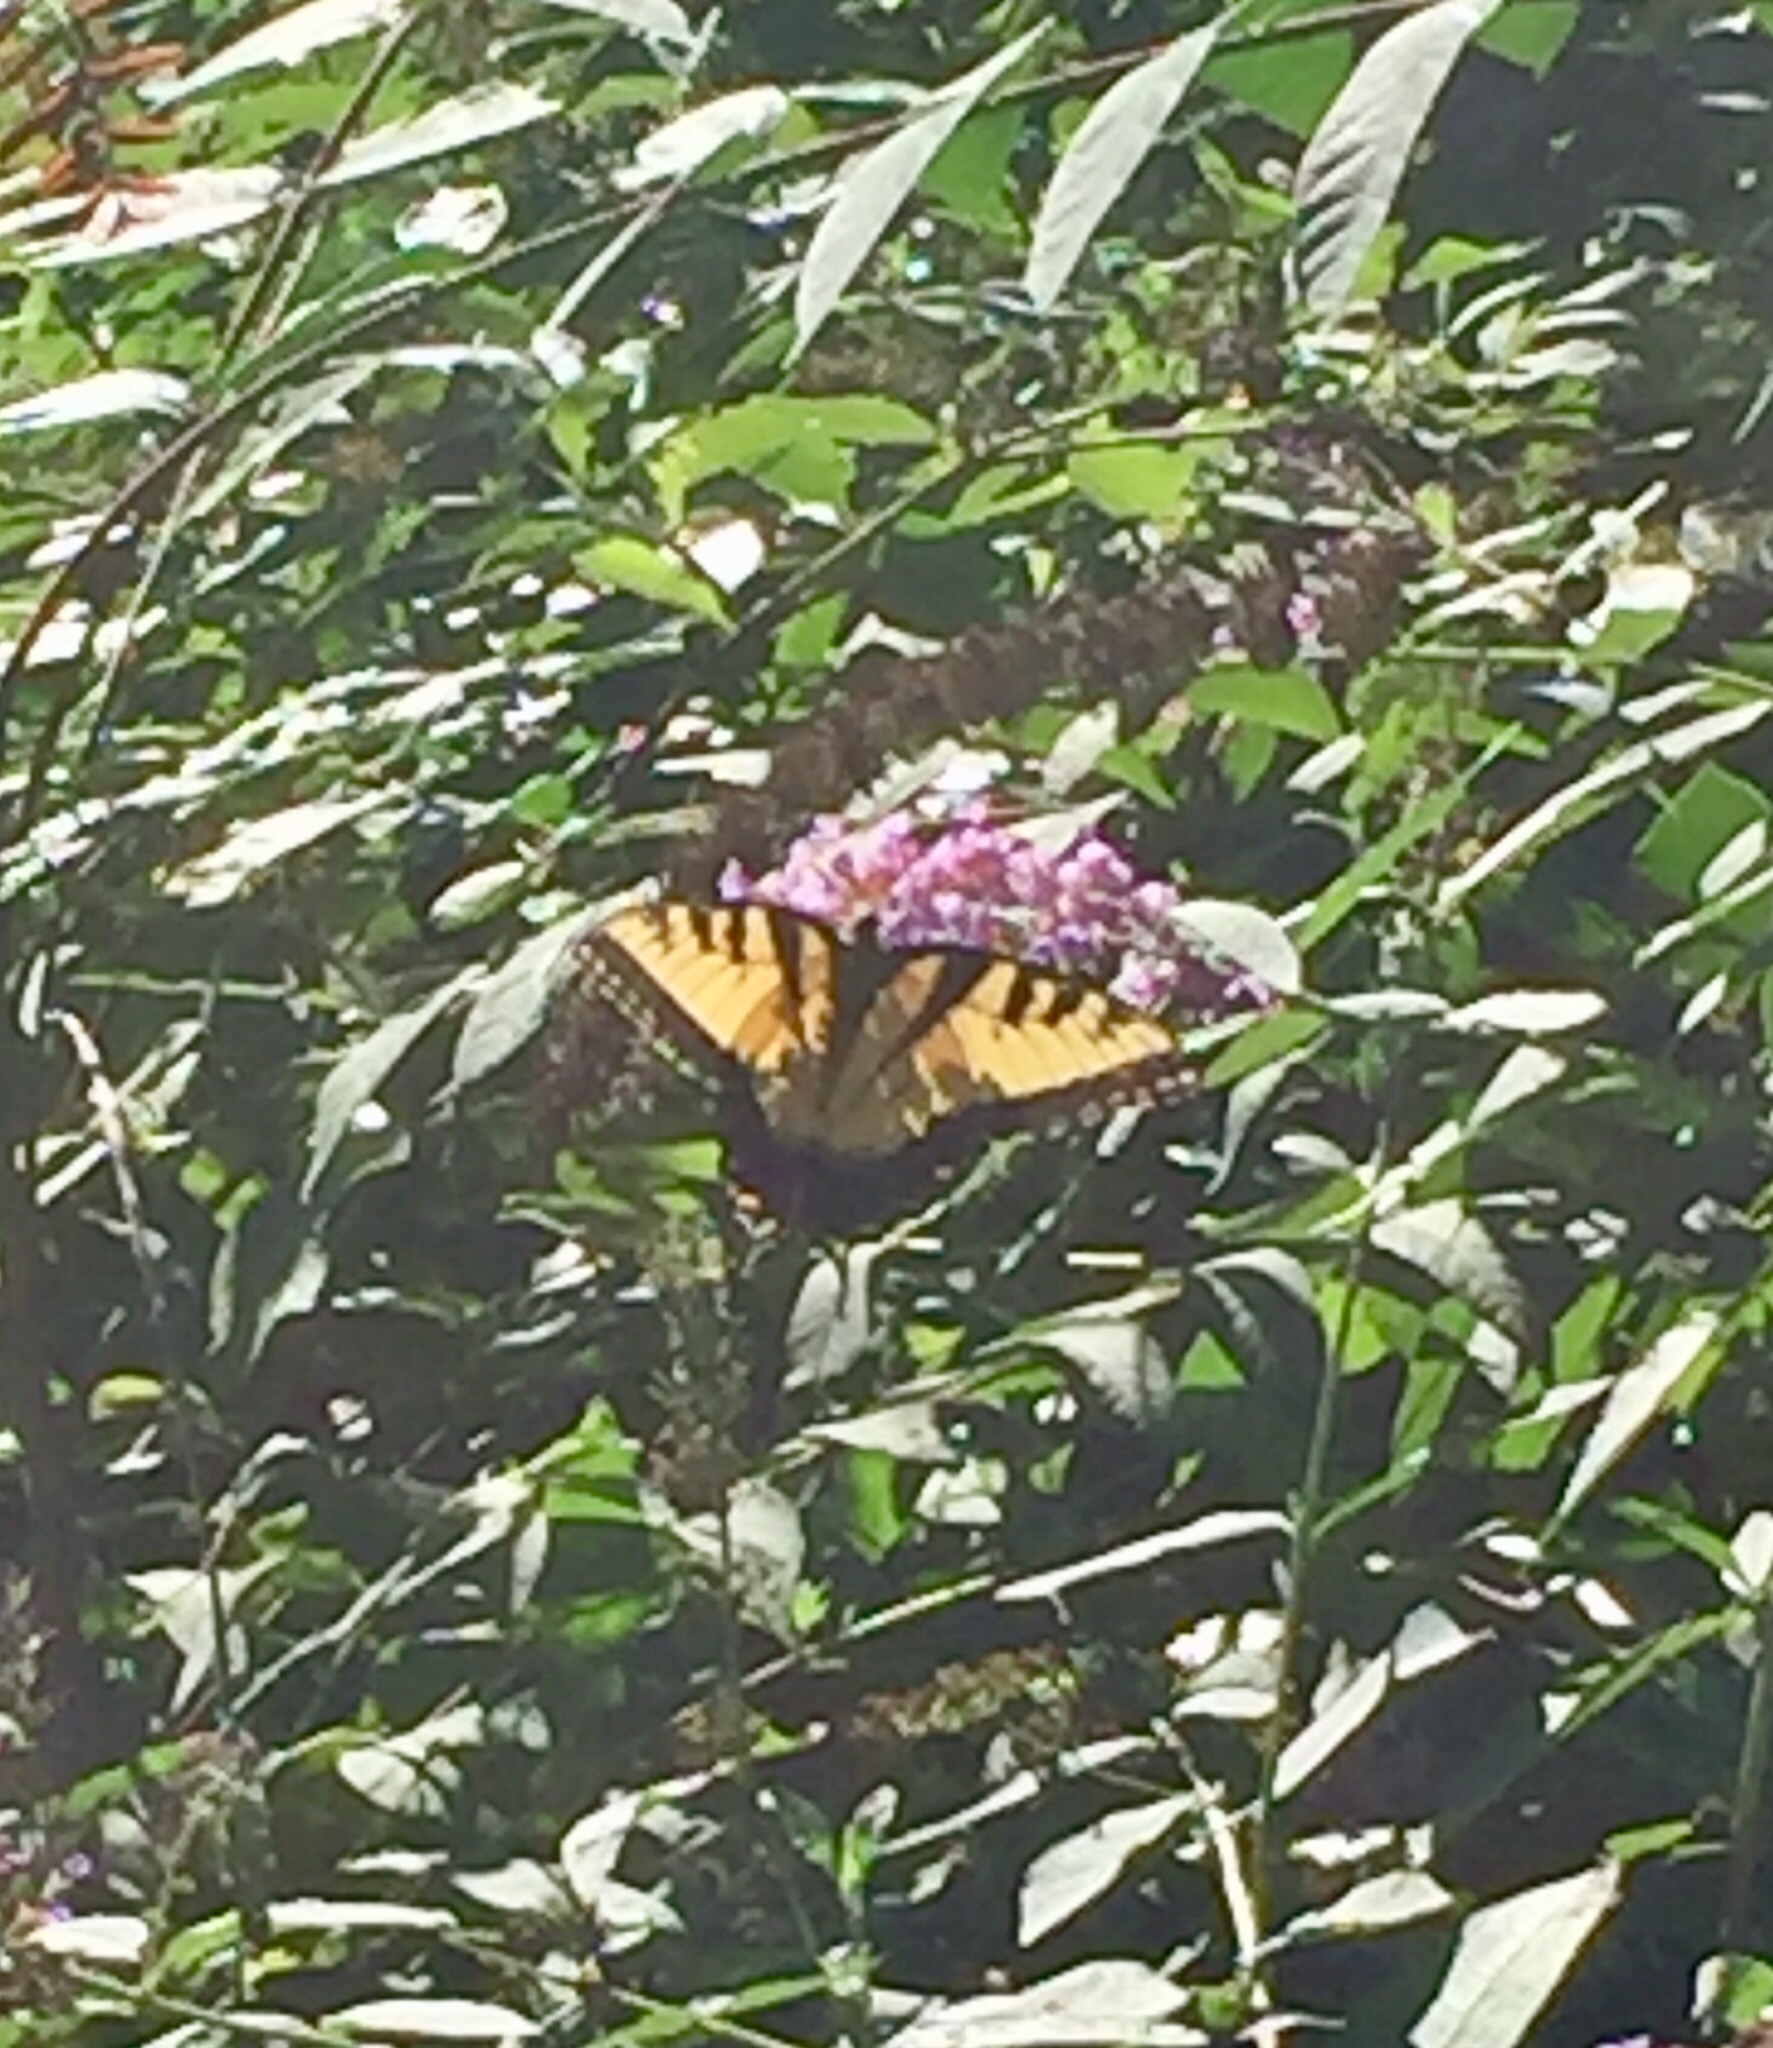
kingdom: Animalia
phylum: Arthropoda
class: Insecta
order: Lepidoptera
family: Papilionidae
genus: Papilio
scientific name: Papilio glaucus
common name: Tiger swallowtail
